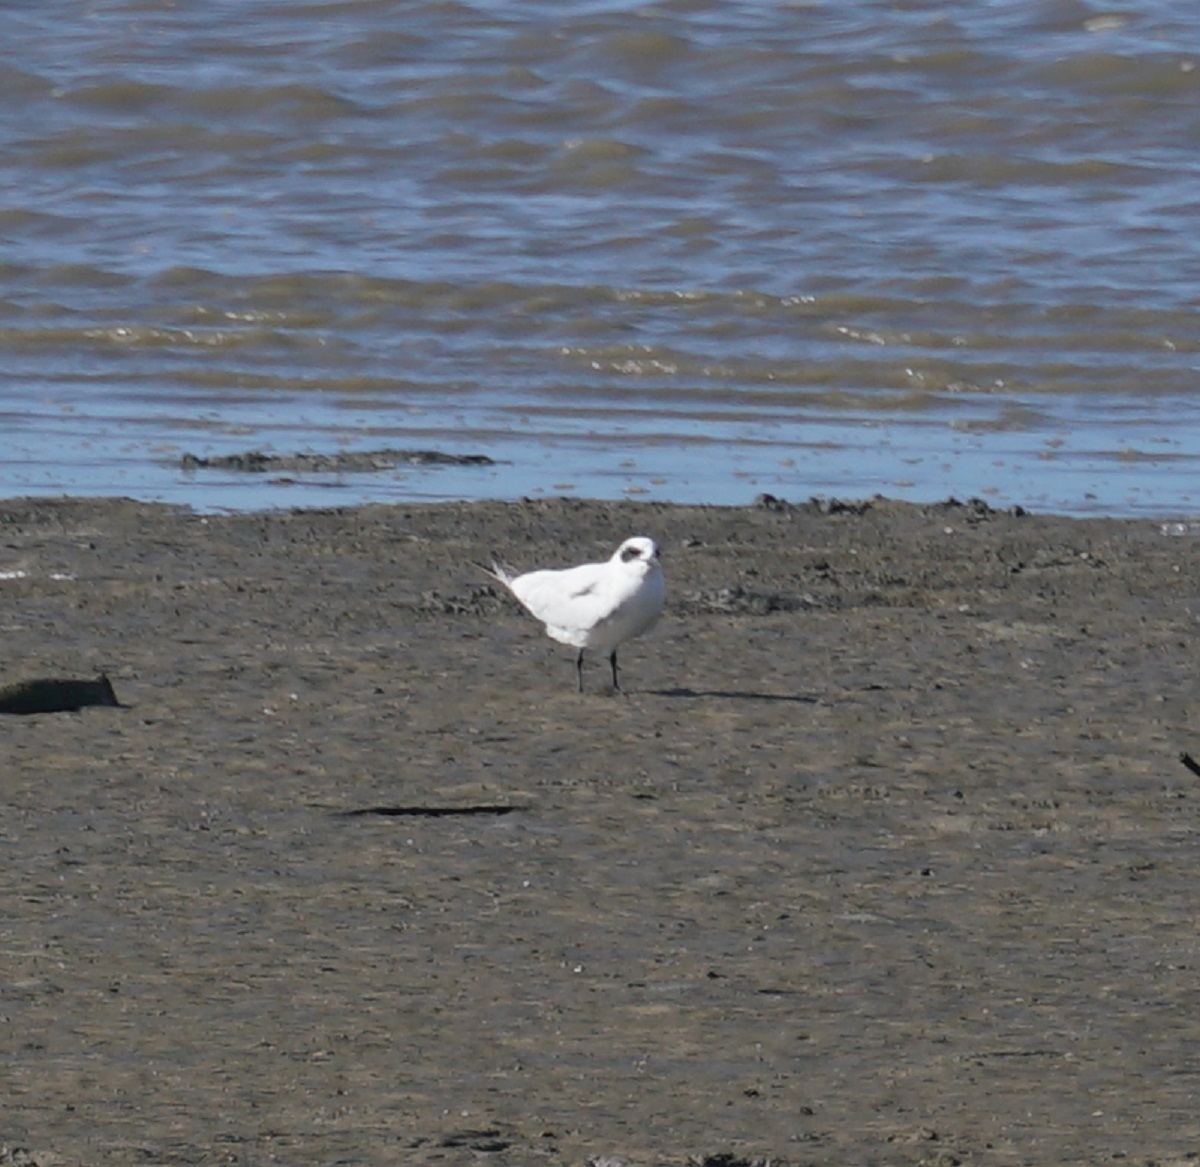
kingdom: Animalia
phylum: Chordata
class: Aves
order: Charadriiformes
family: Laridae
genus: Gelochelidon
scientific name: Gelochelidon macrotarsa
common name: Australian tern
